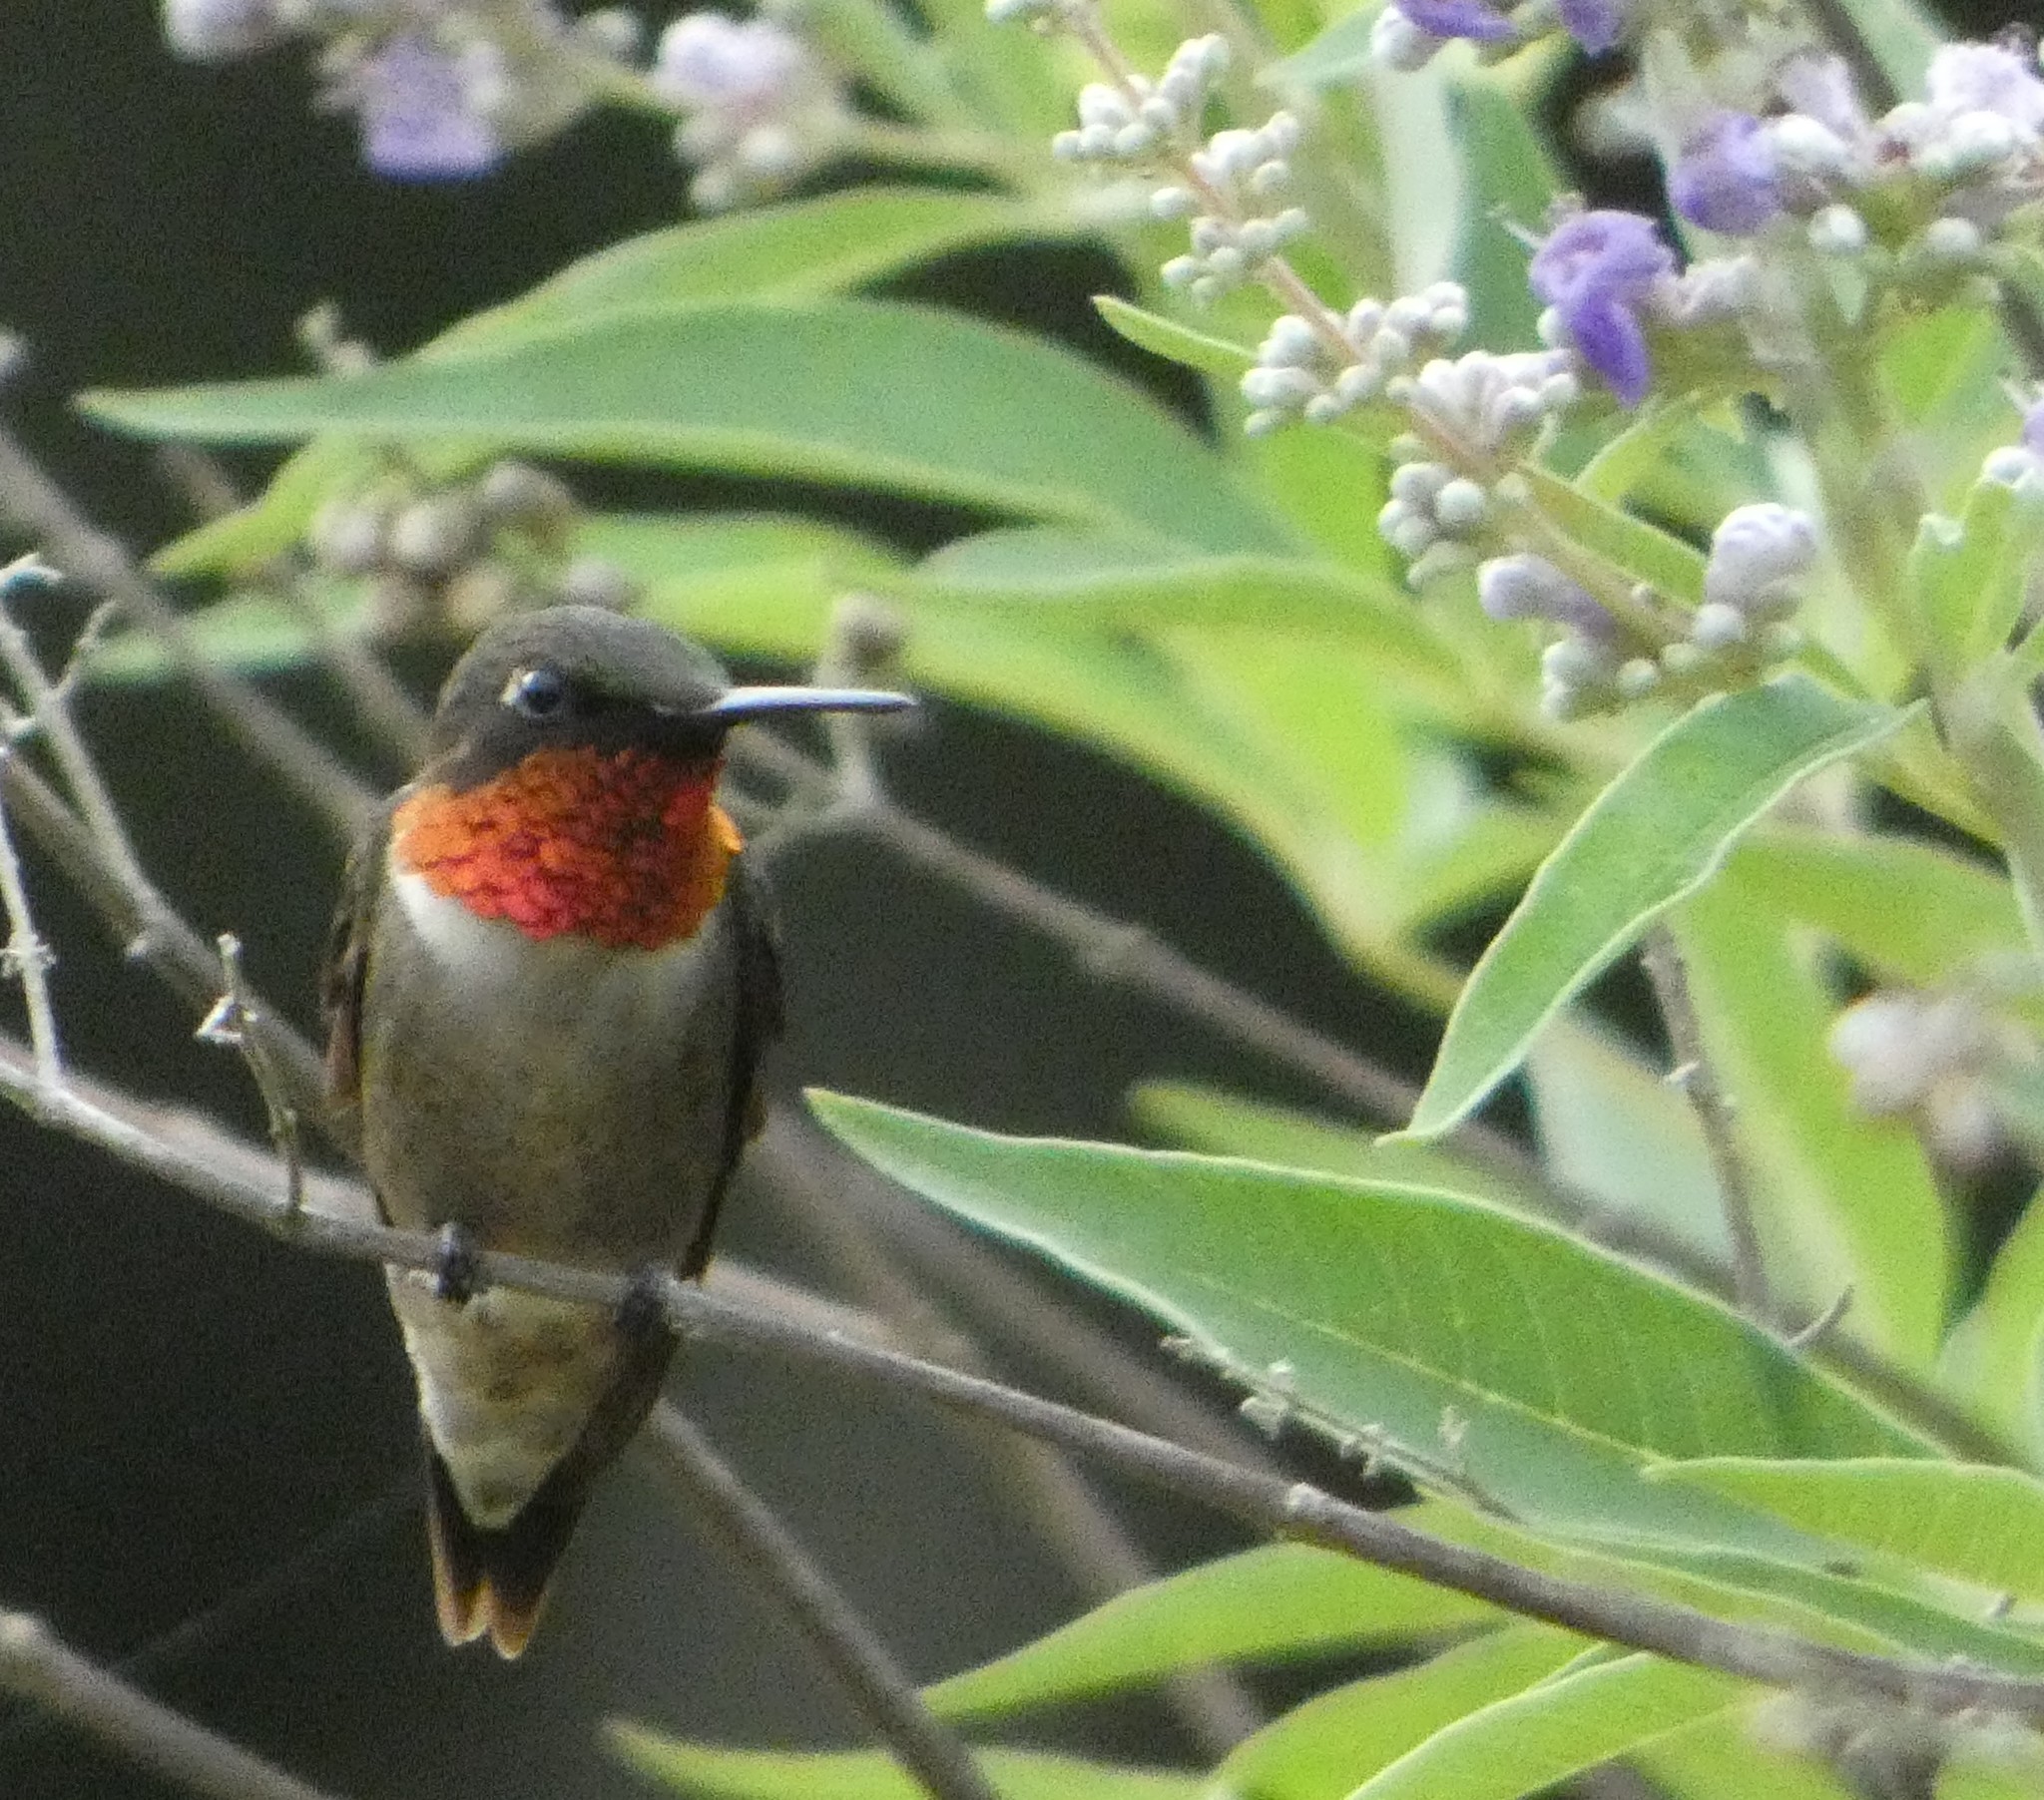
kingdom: Animalia
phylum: Chordata
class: Aves
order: Apodiformes
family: Trochilidae
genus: Archilochus
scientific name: Archilochus colubris
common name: Ruby-throated hummingbird
